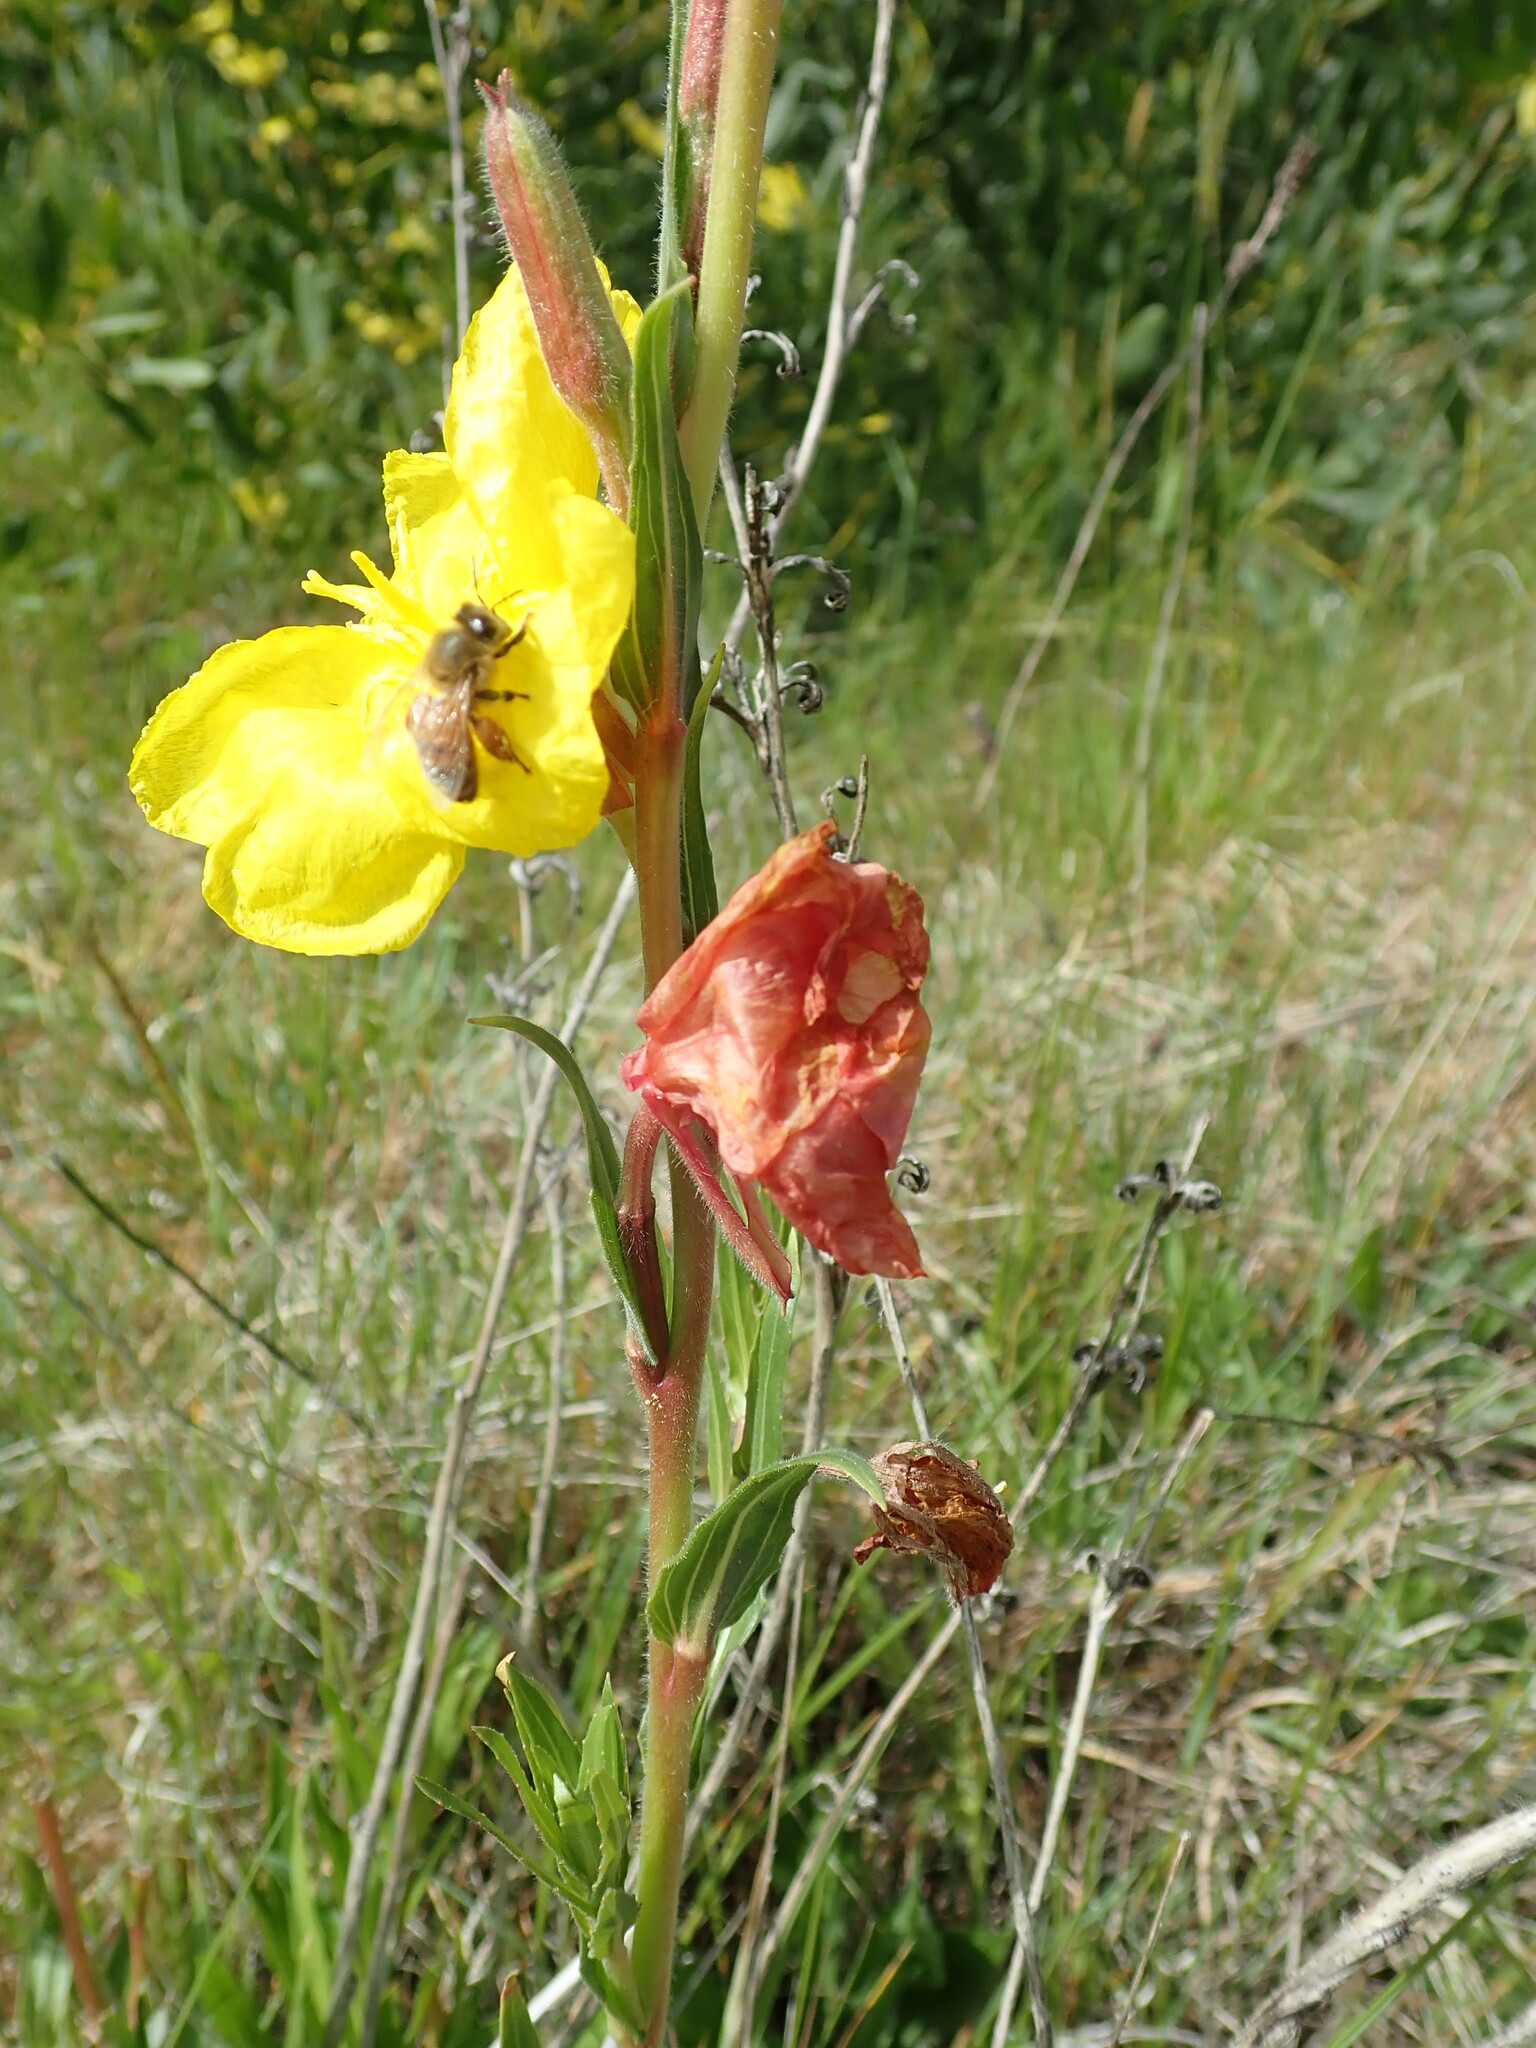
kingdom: Animalia
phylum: Arthropoda
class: Insecta
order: Hymenoptera
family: Apidae
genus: Apis
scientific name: Apis mellifera
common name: Honey bee
